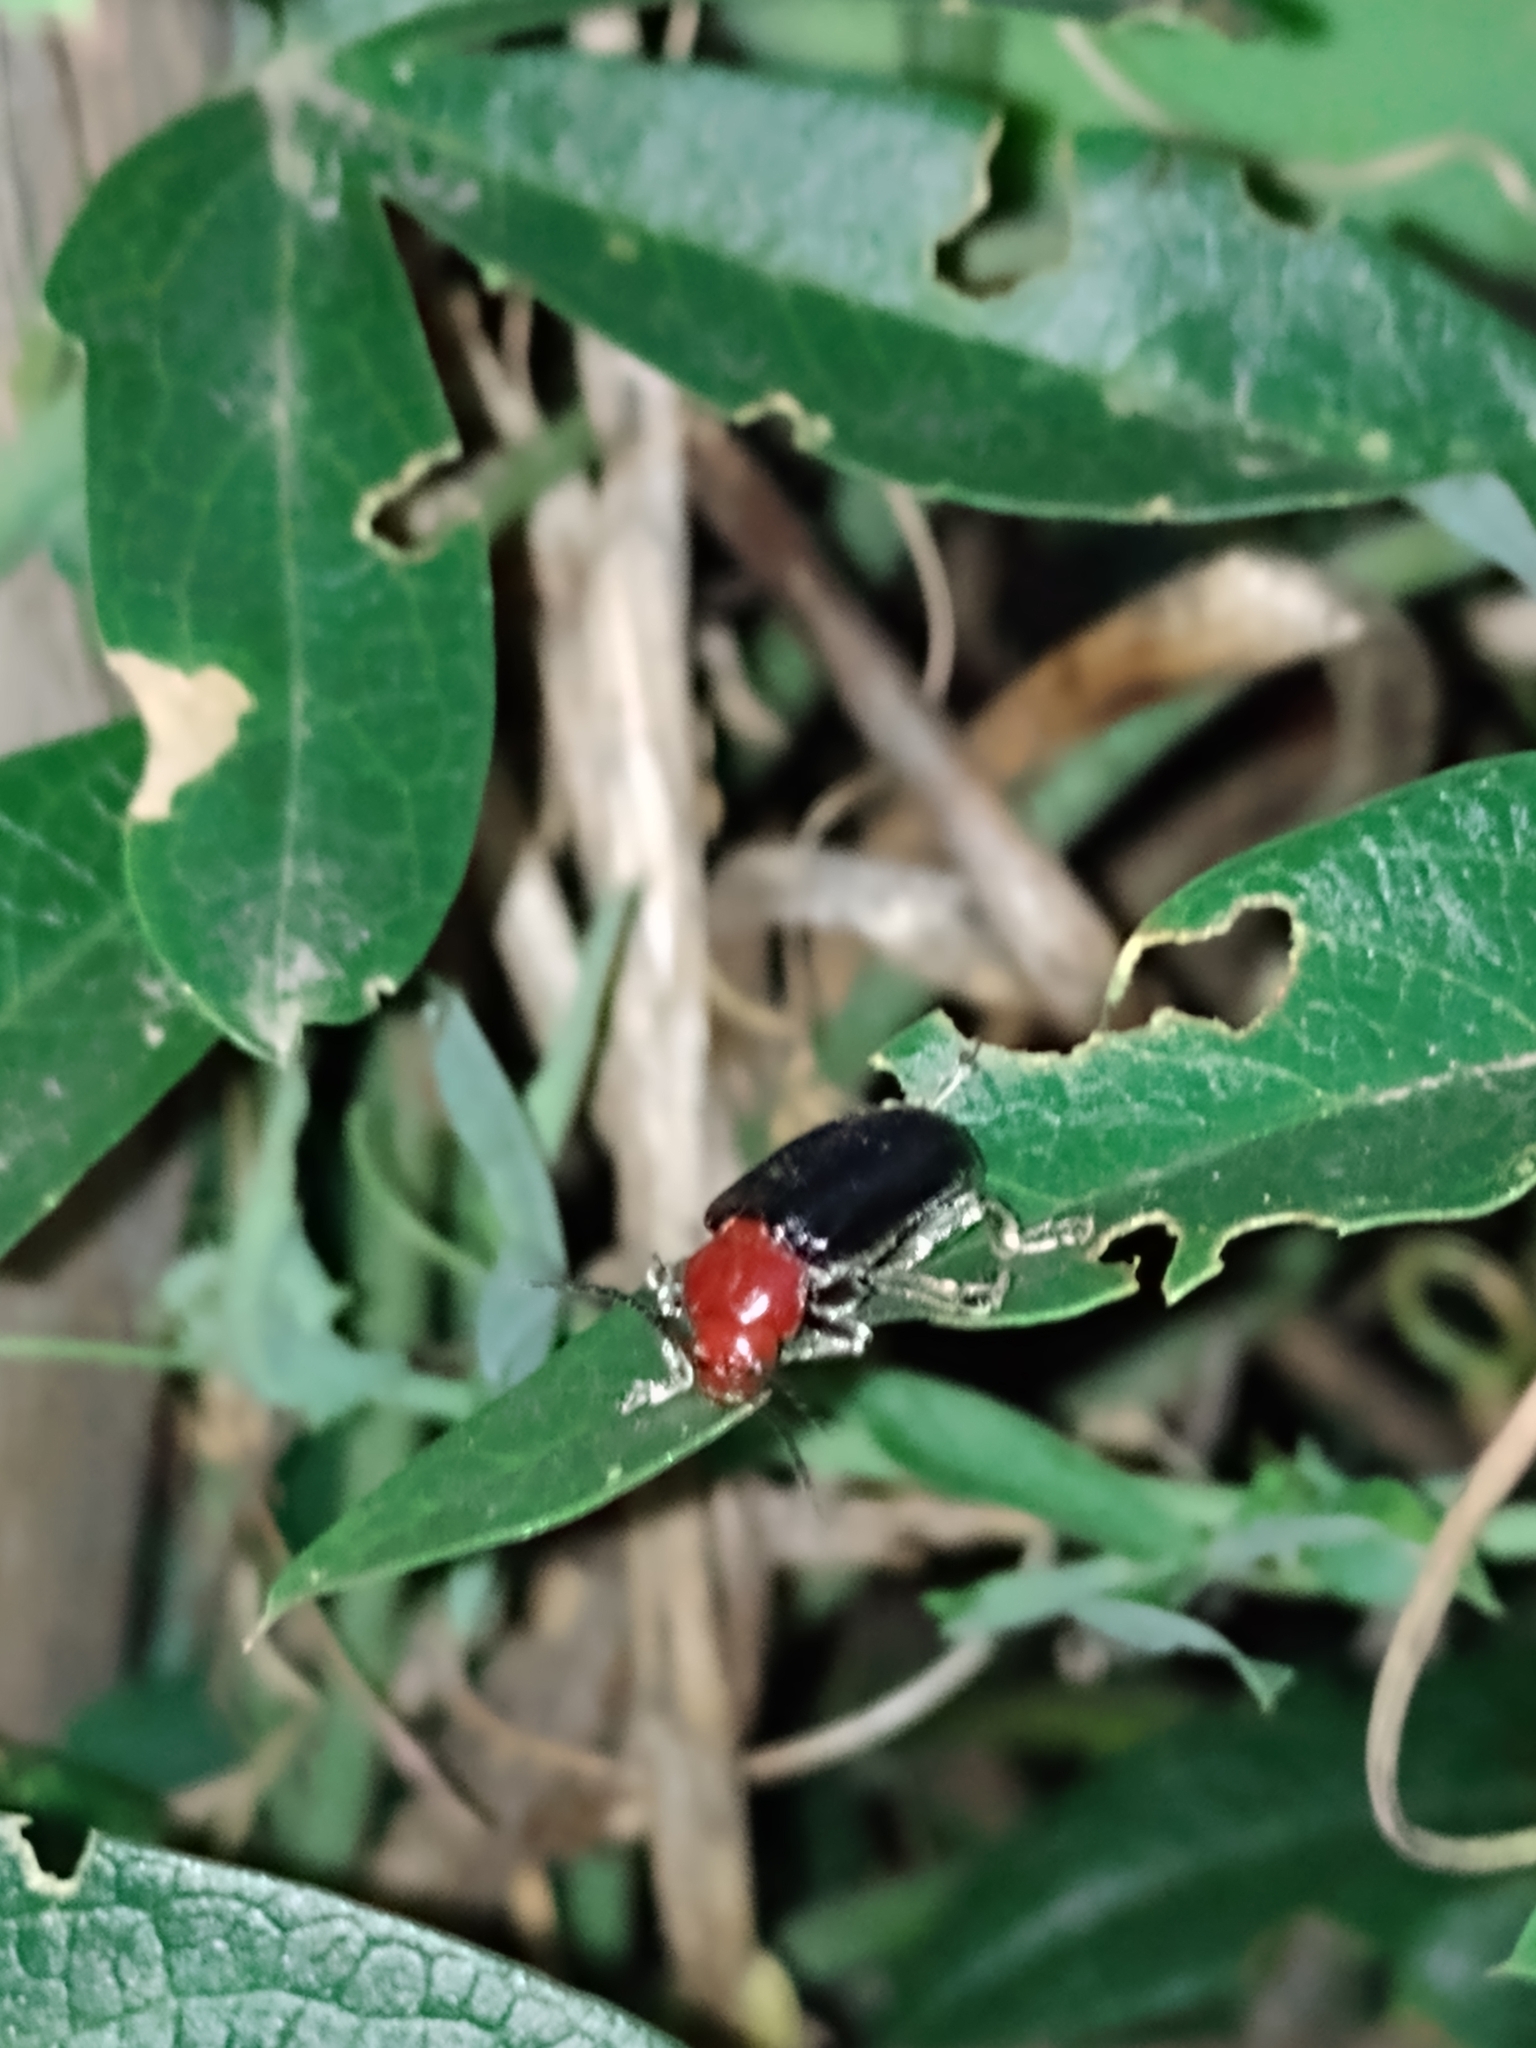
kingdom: Animalia
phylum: Arthropoda
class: Insecta
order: Coleoptera
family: Chrysomelidae
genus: Cacoscelis
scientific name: Cacoscelis
